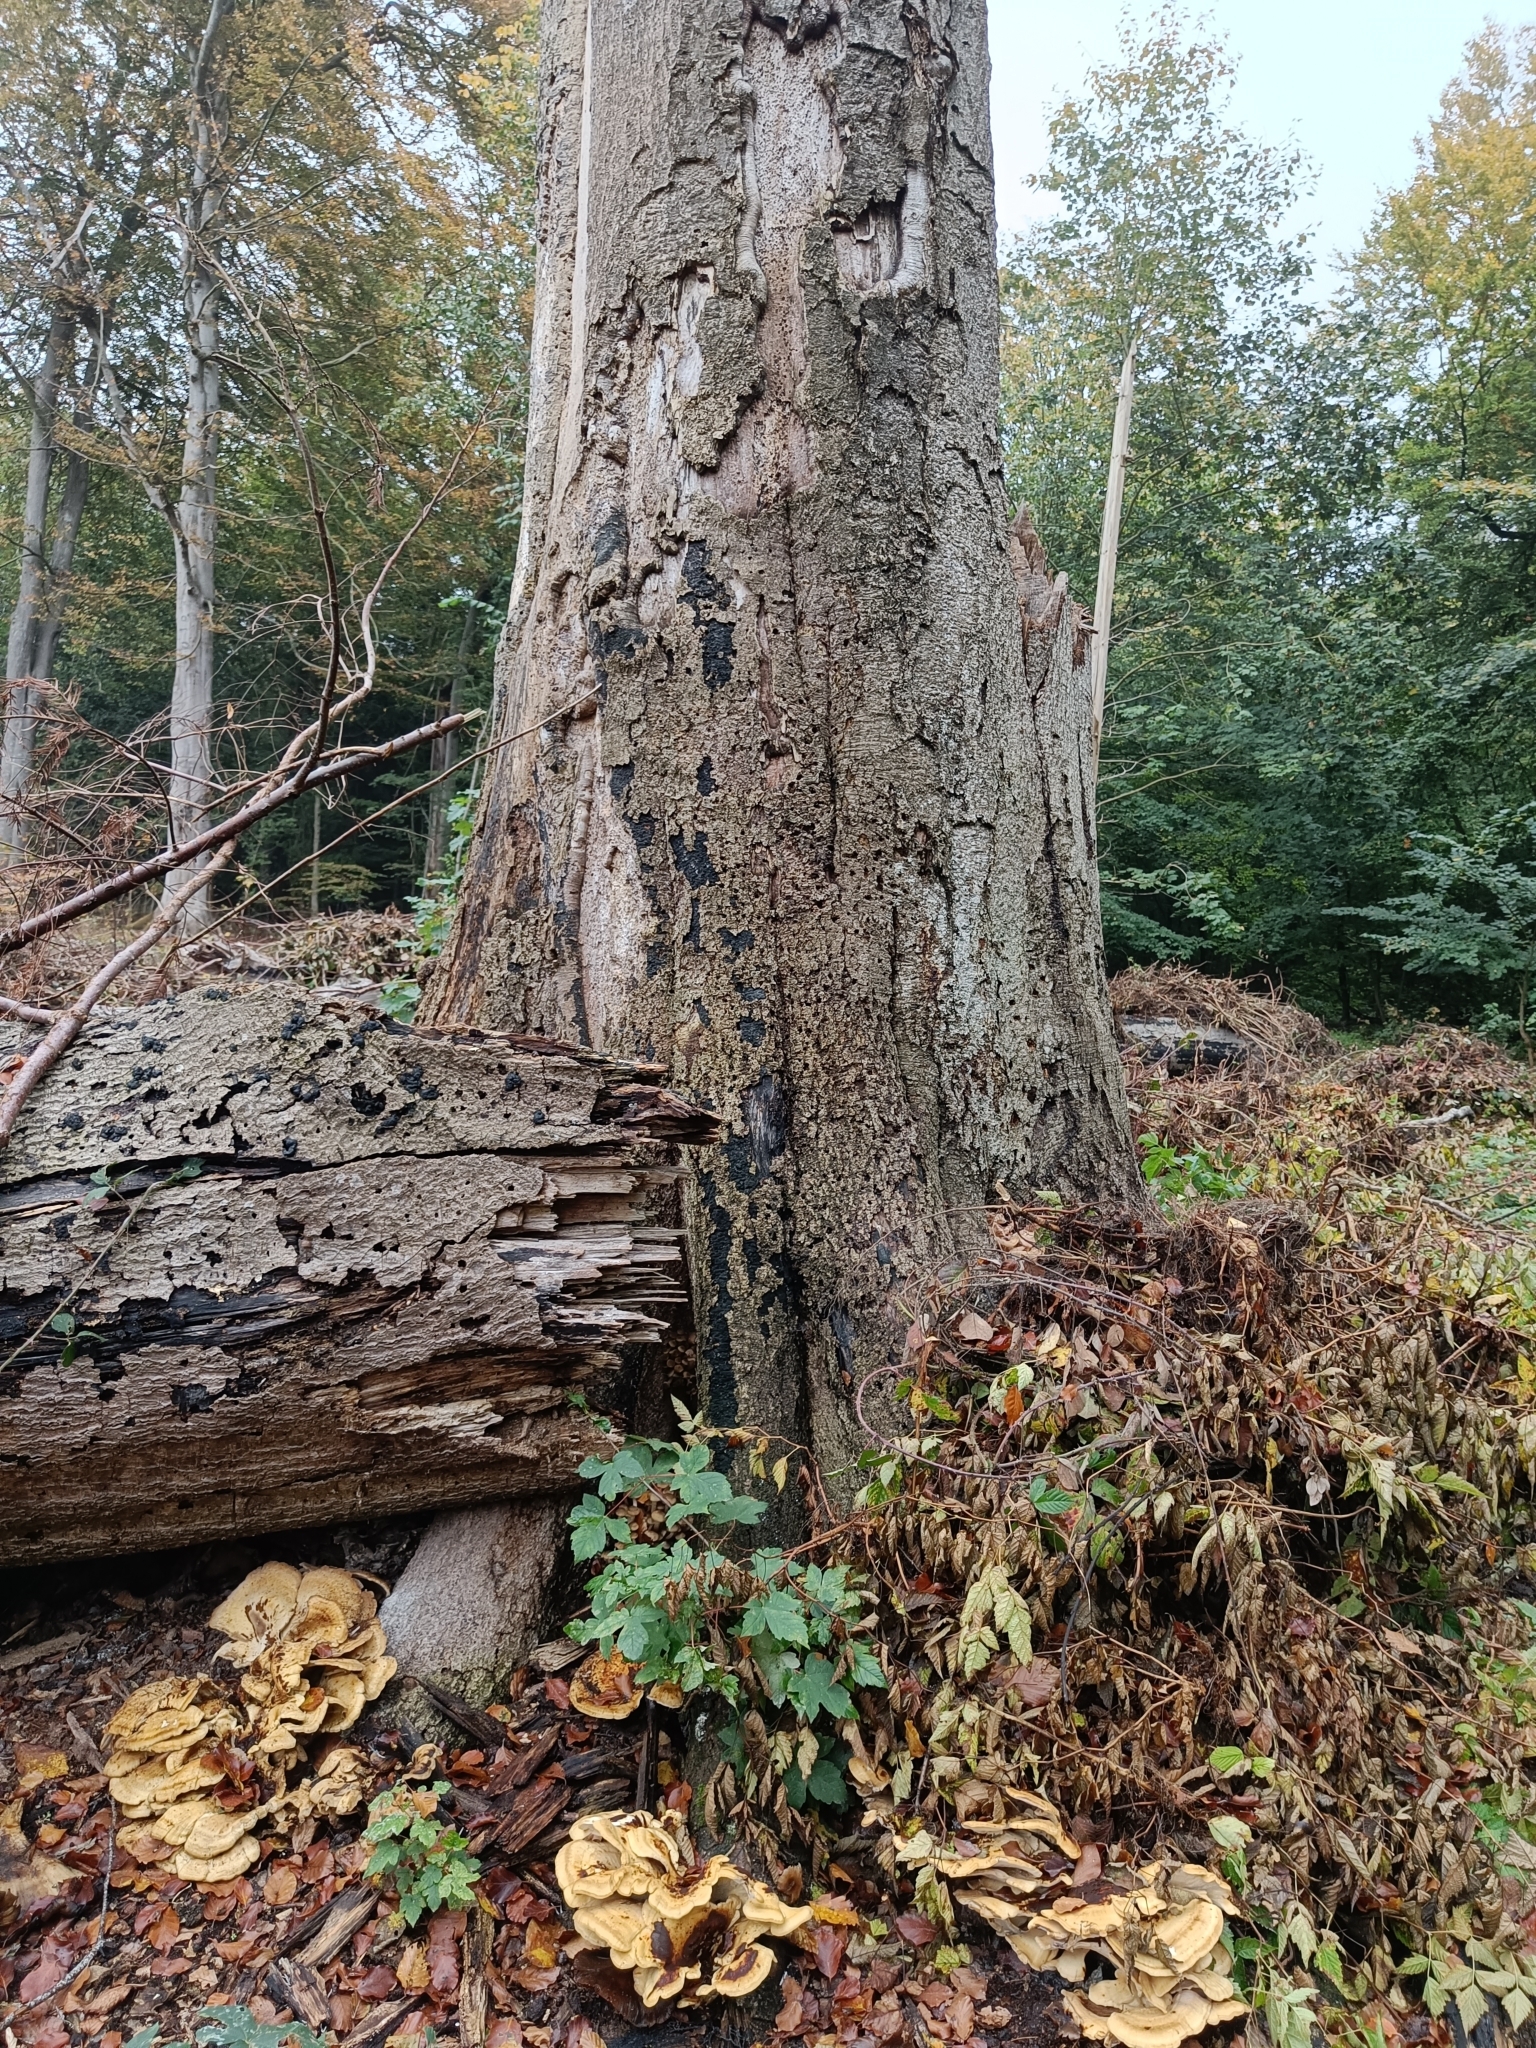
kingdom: Fungi
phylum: Basidiomycota
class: Agaricomycetes
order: Polyporales
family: Meripilaceae
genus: Meripilus
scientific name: Meripilus giganteus
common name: Giant polypore
